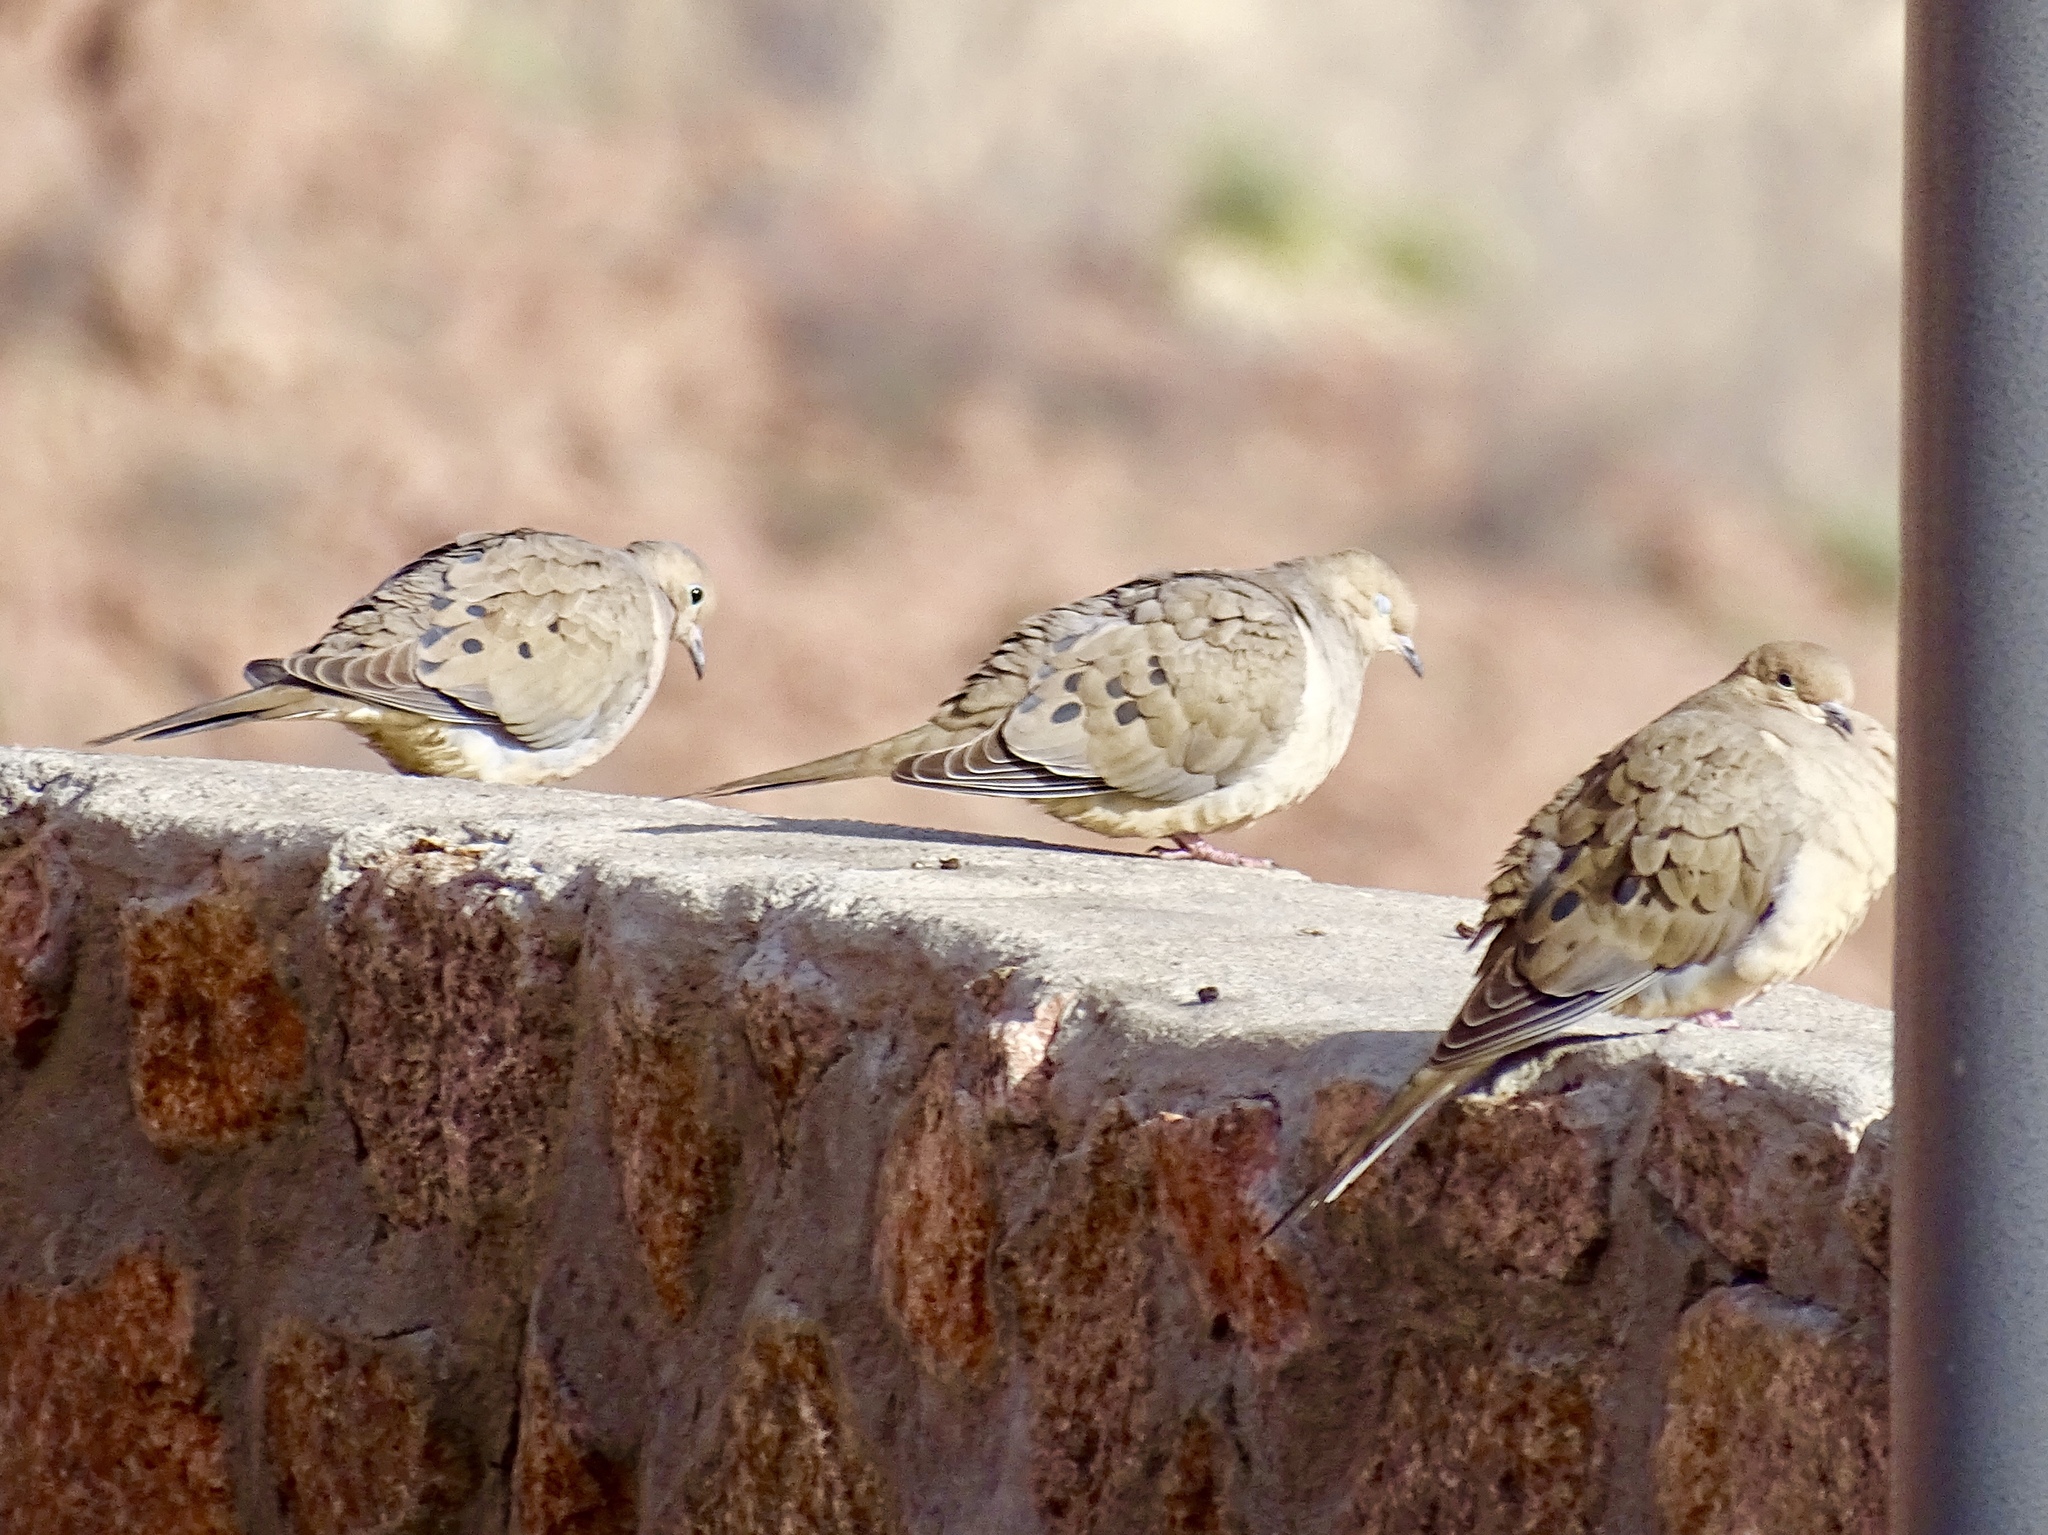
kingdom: Animalia
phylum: Chordata
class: Aves
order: Columbiformes
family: Columbidae
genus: Zenaida
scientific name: Zenaida macroura
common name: Mourning dove
